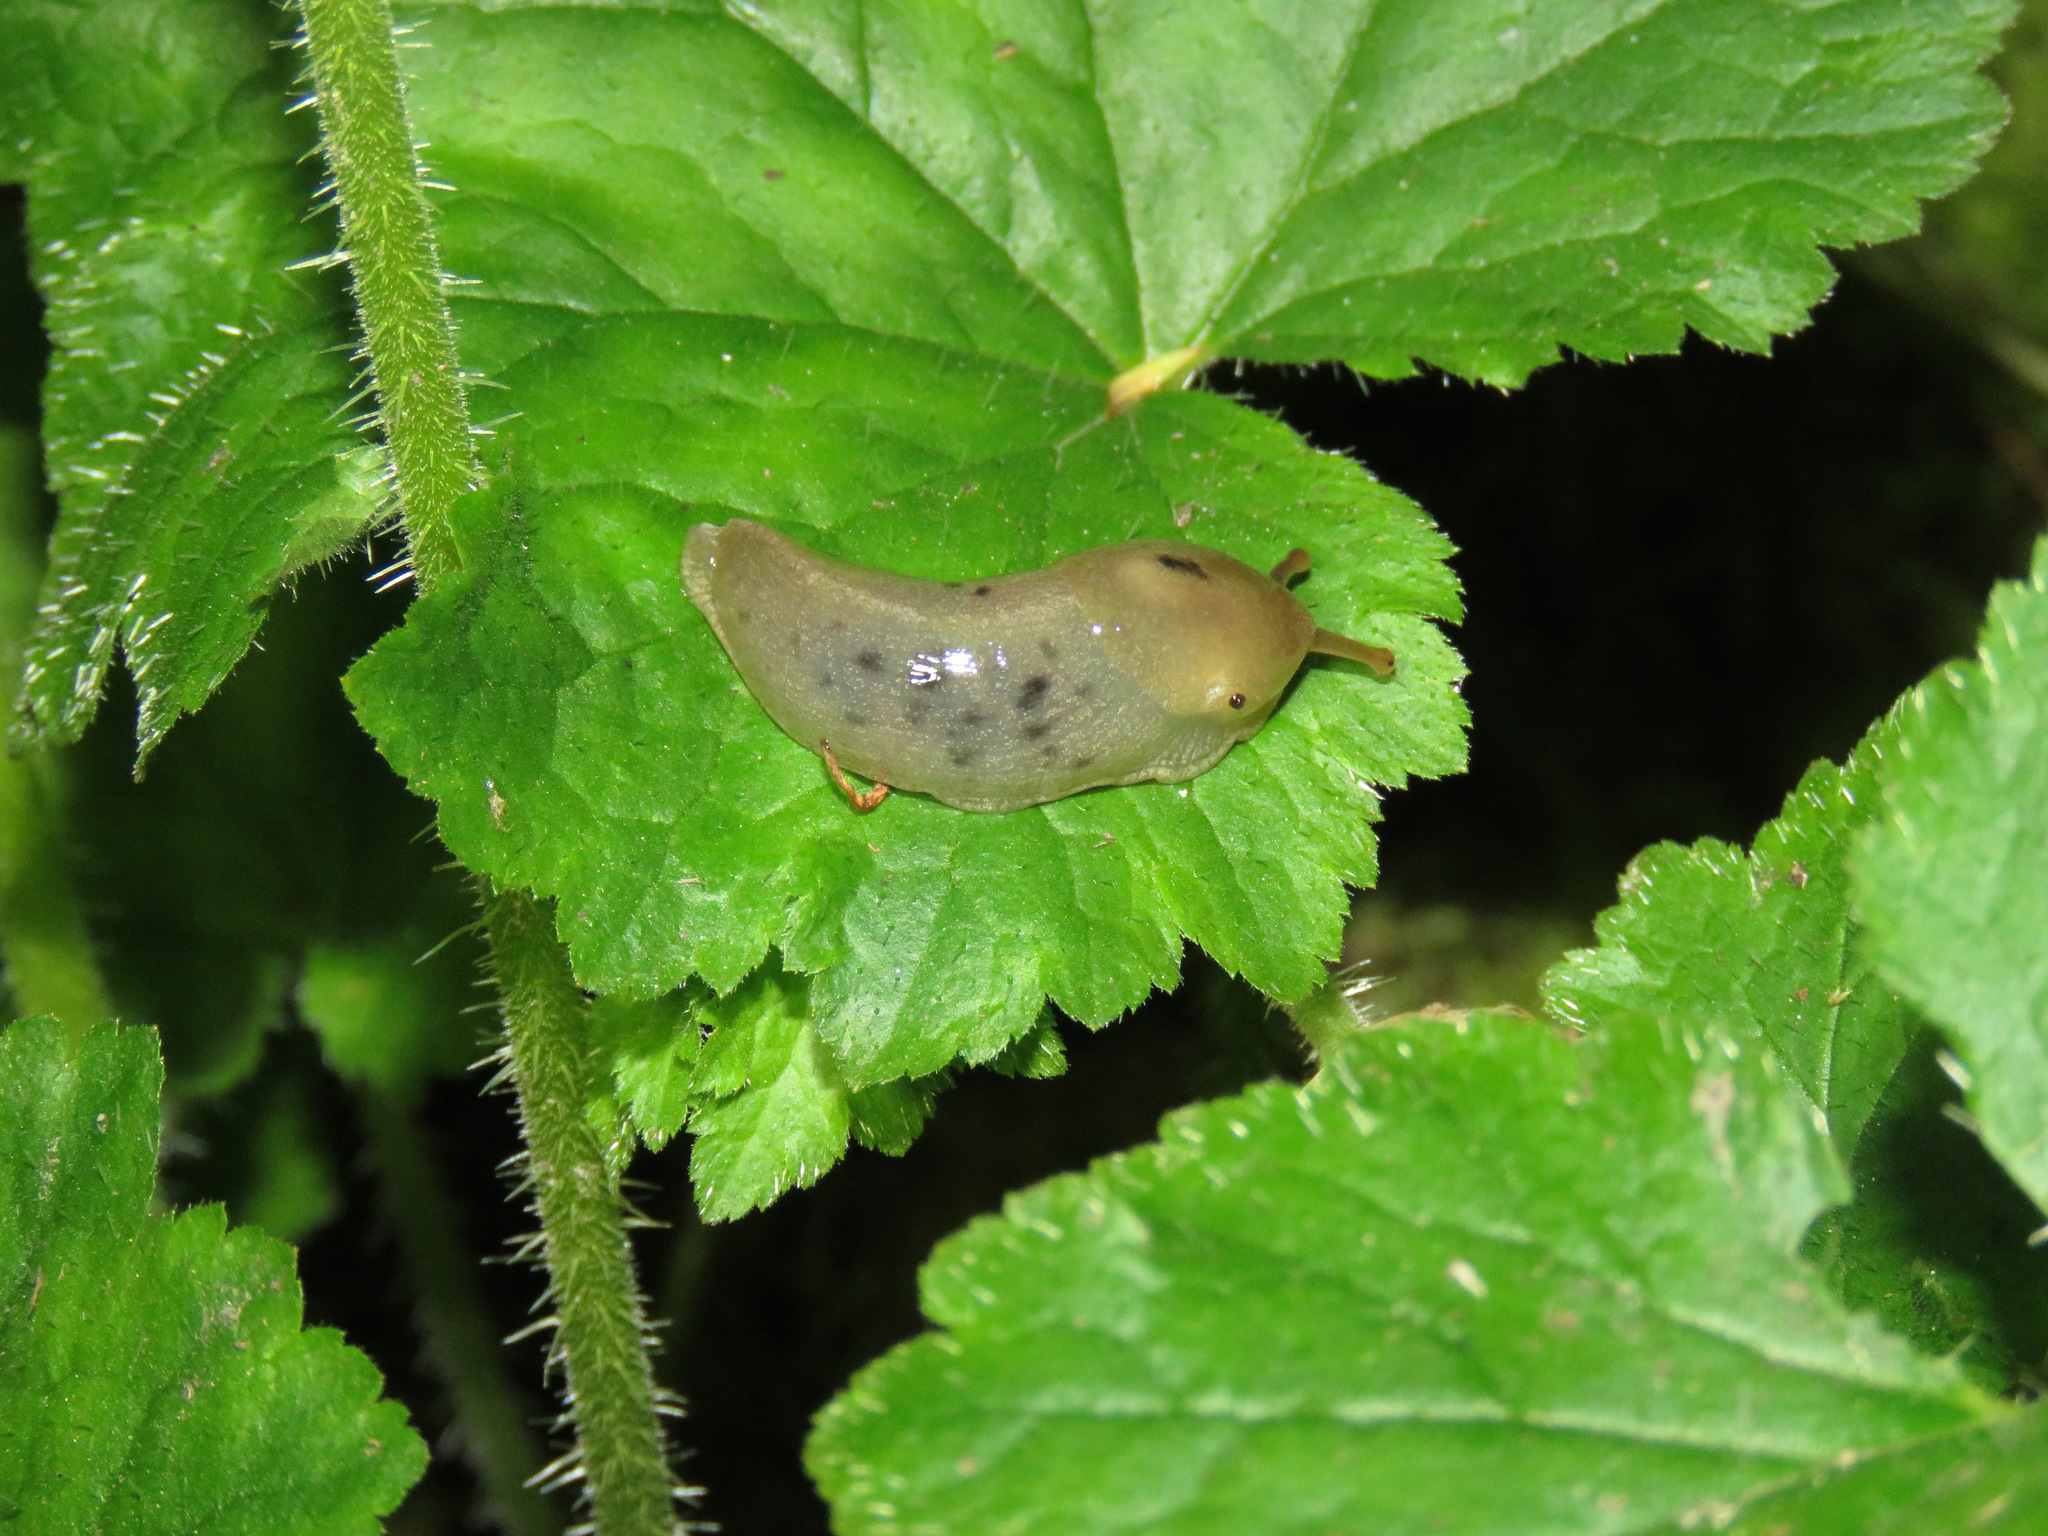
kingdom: Animalia
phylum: Mollusca
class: Gastropoda
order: Stylommatophora
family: Ariolimacidae
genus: Ariolimax
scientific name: Ariolimax columbianus
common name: Pacific banana slug
